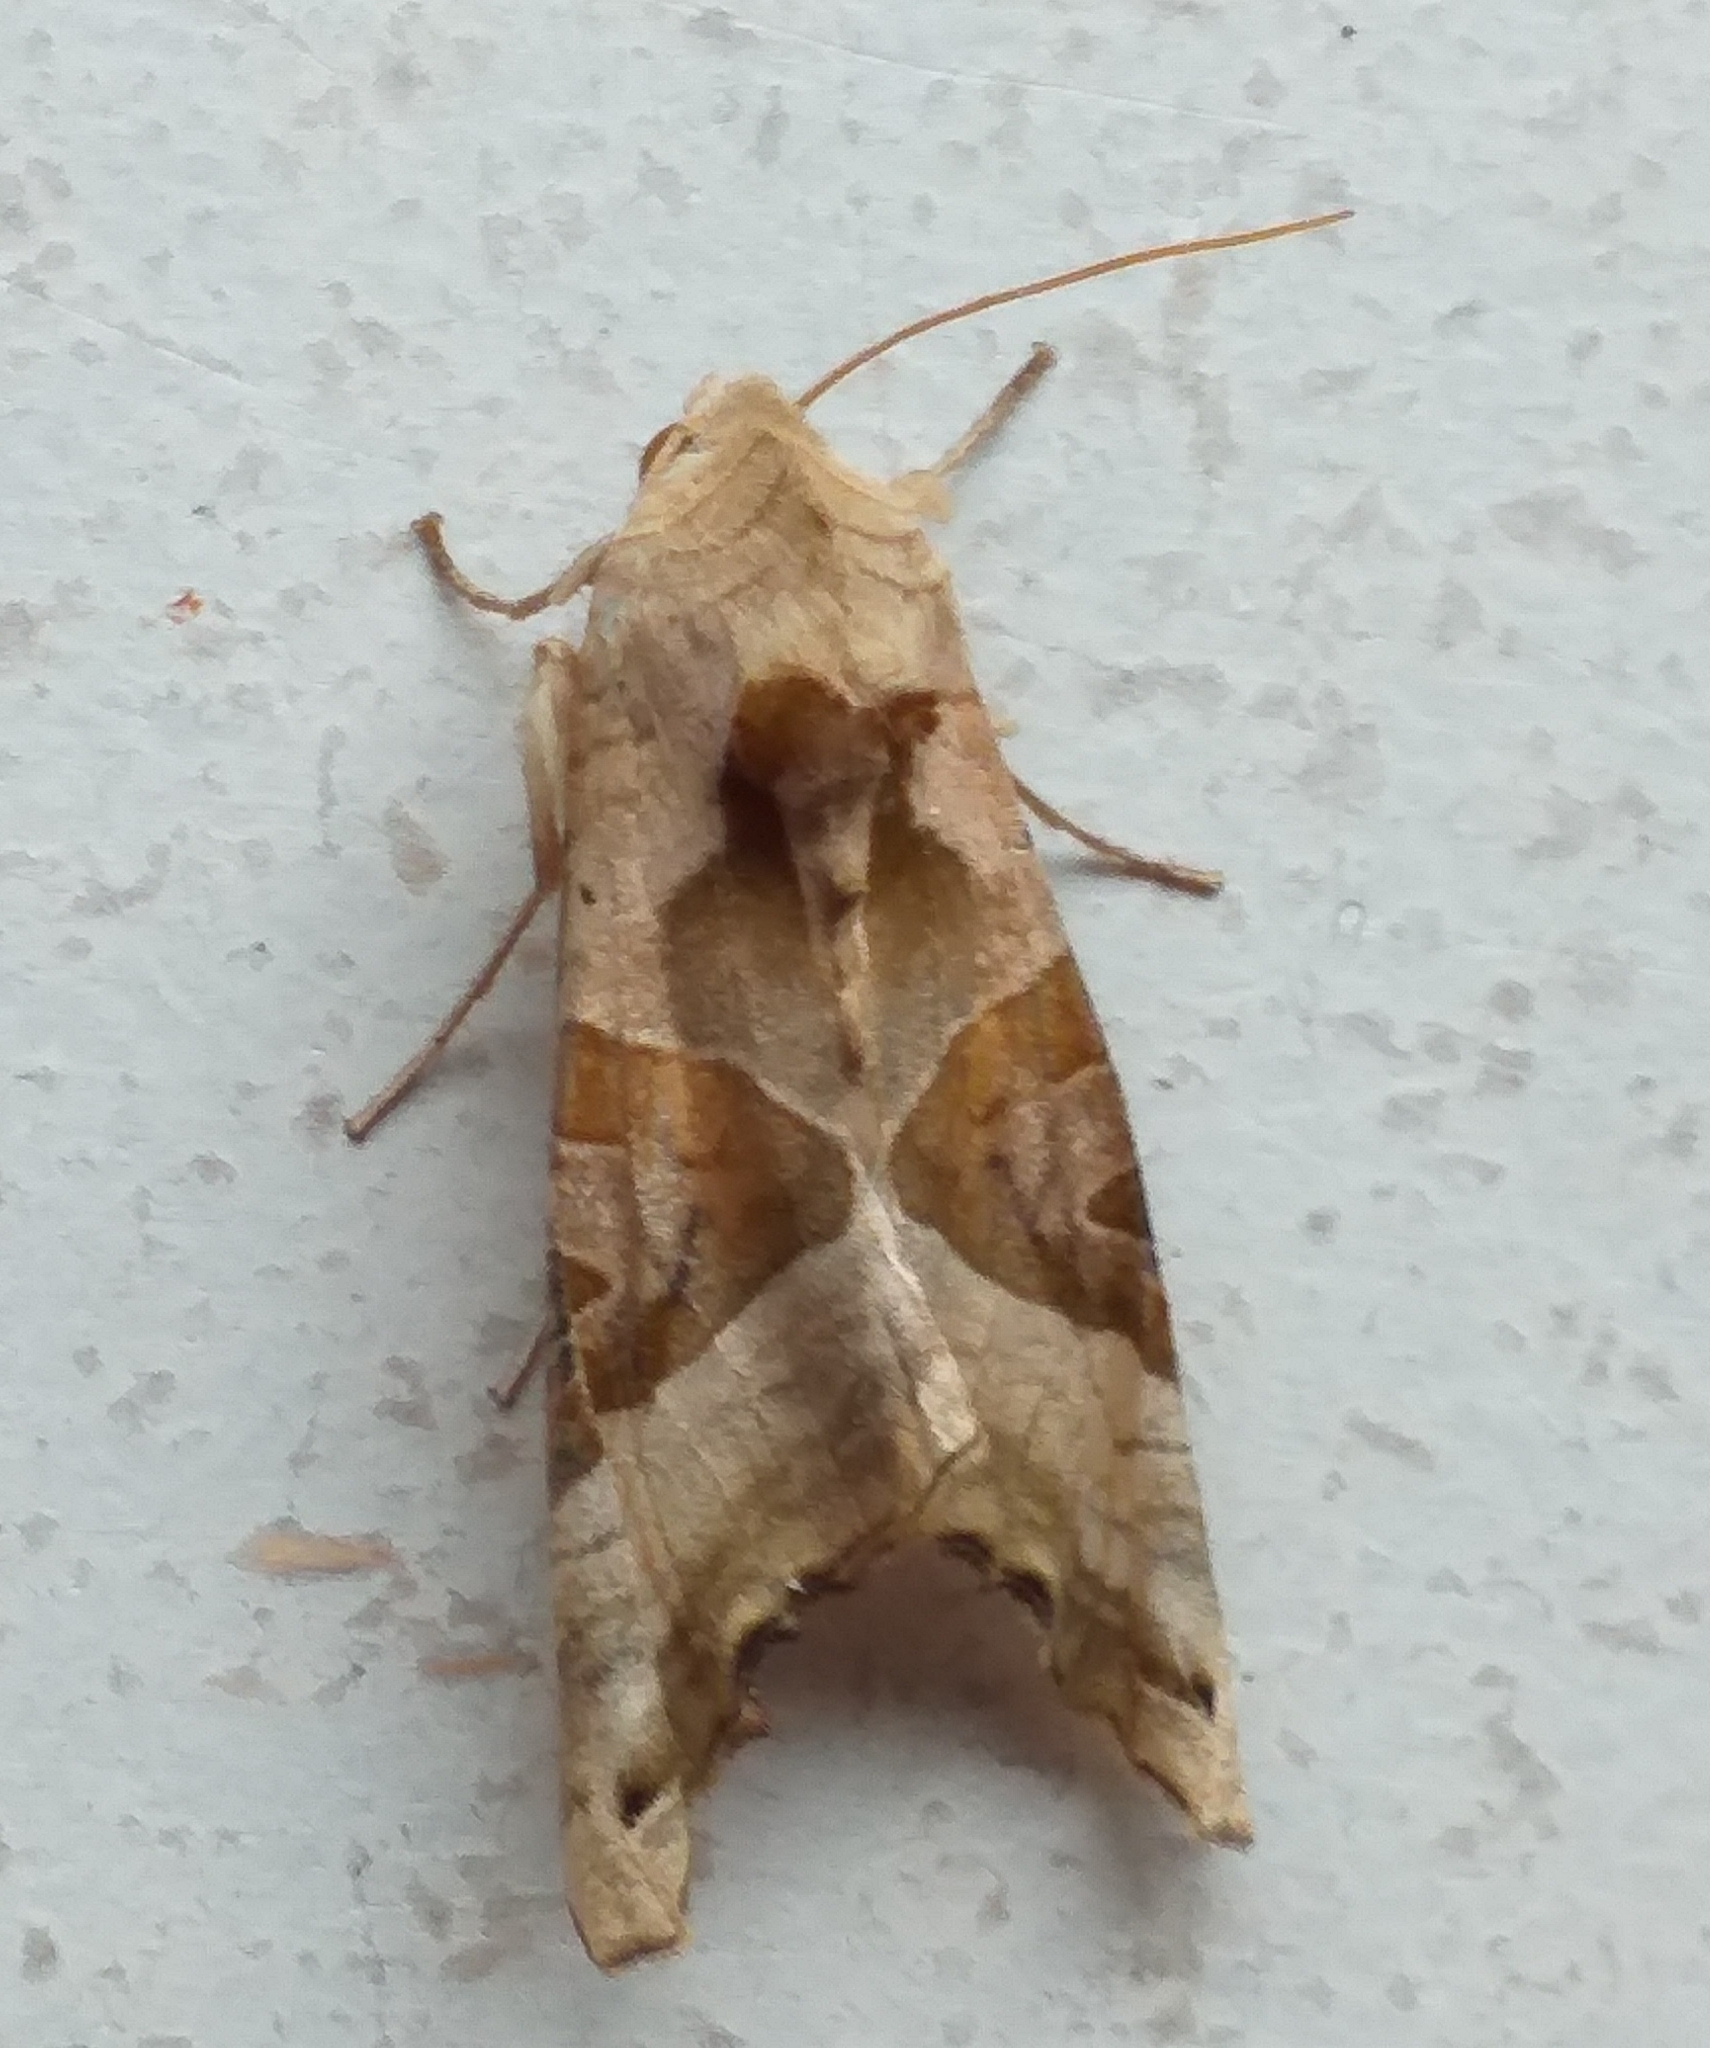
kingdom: Animalia
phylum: Arthropoda
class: Insecta
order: Lepidoptera
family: Noctuidae
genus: Phlogophora
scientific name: Phlogophora meticulosa
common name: Angle shades
